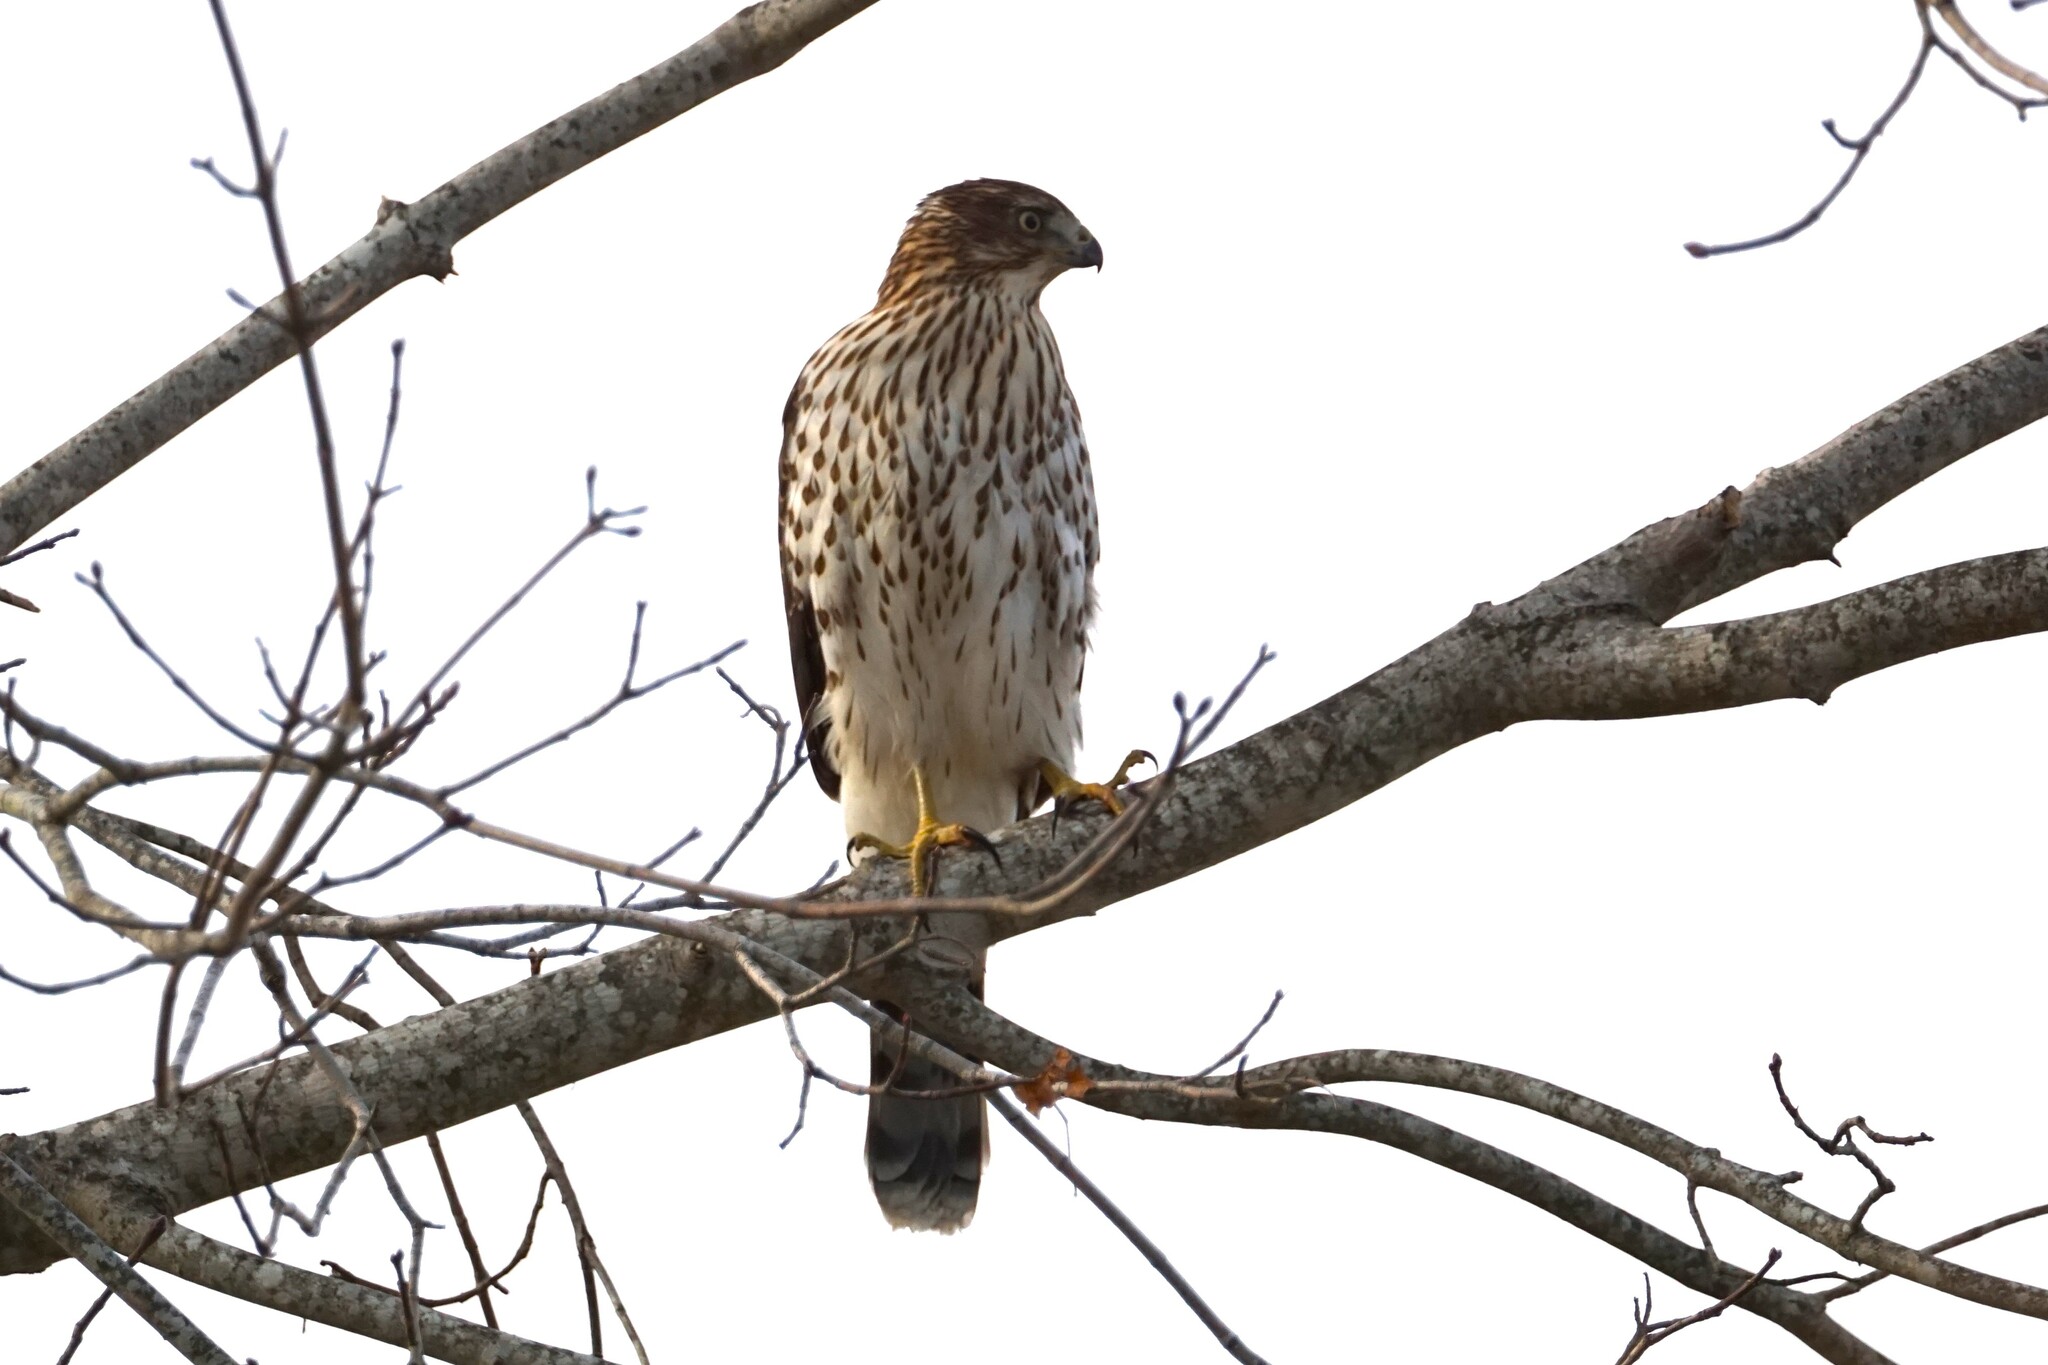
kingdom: Animalia
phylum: Chordata
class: Aves
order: Accipitriformes
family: Accipitridae
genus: Accipiter
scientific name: Accipiter cooperii
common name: Cooper's hawk
